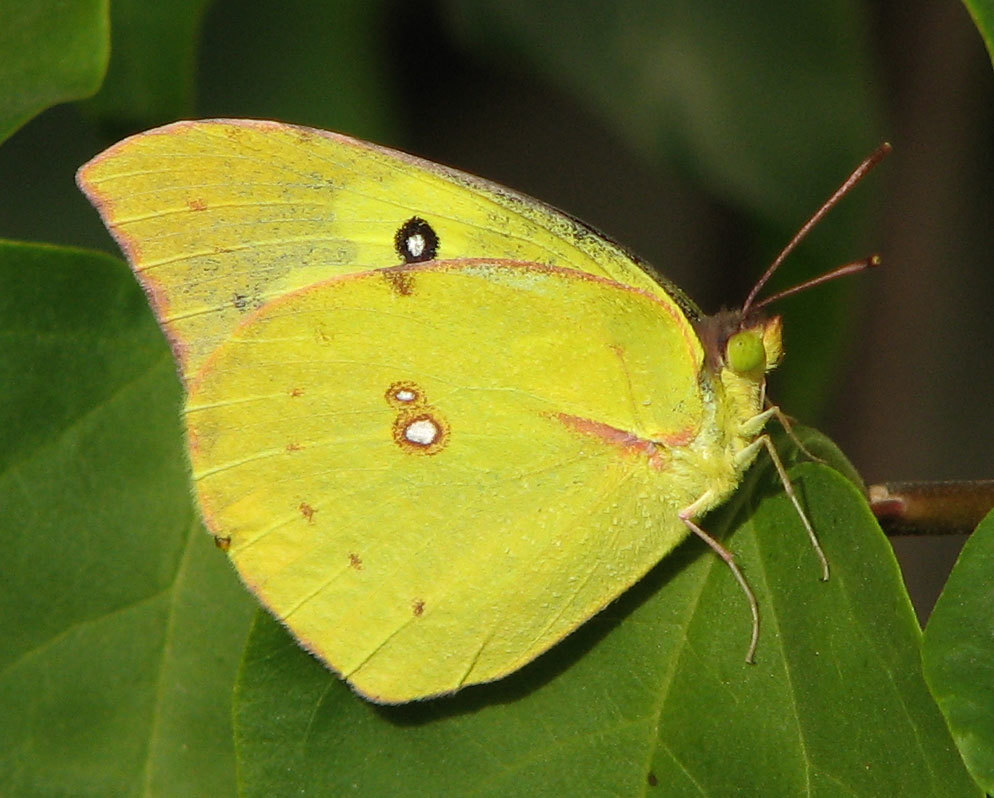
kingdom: Animalia
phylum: Arthropoda
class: Insecta
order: Lepidoptera
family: Pieridae
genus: Zerene
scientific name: Zerene cesonia
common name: Southern dogface
